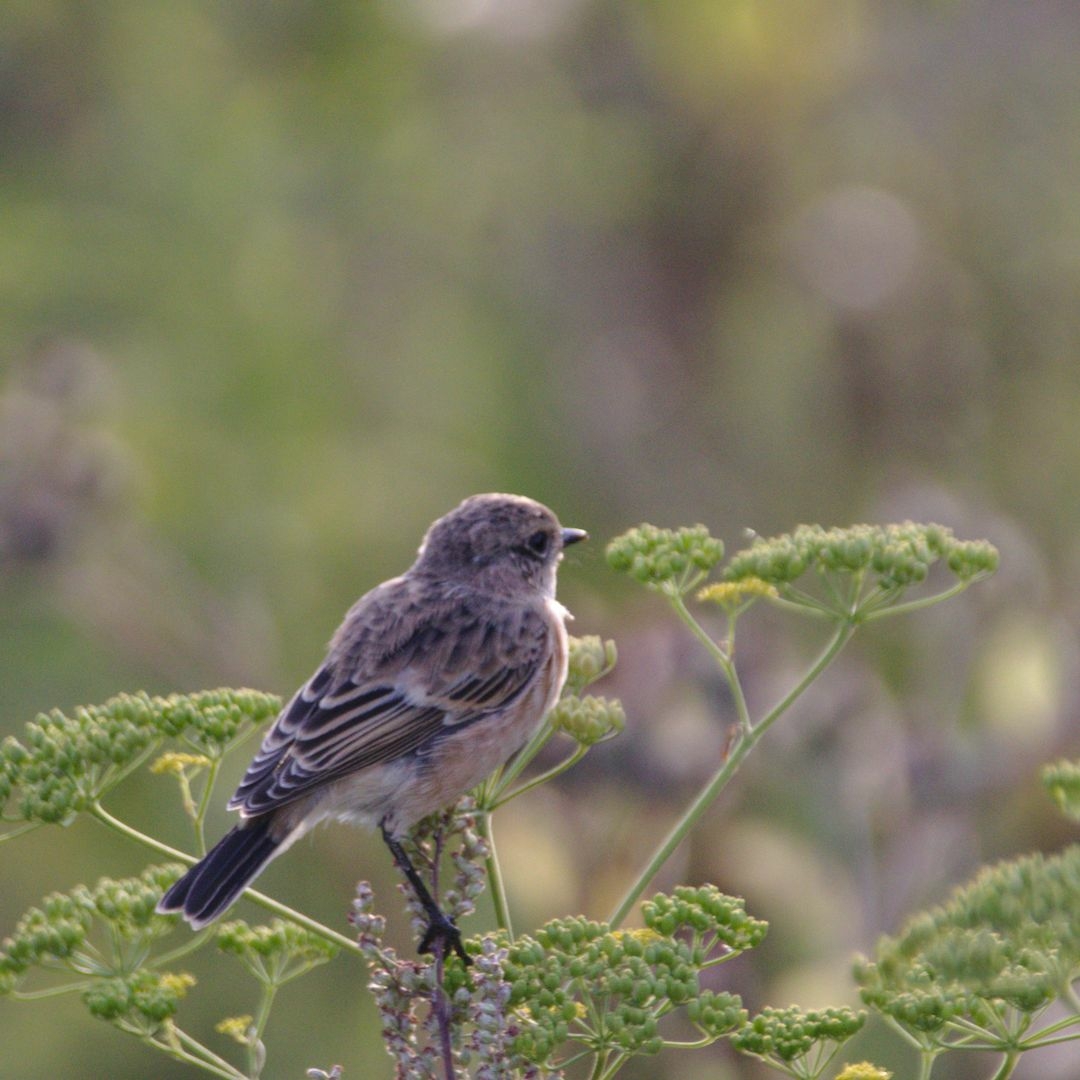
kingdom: Animalia
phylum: Chordata
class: Aves
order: Passeriformes
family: Muscicapidae
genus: Saxicola
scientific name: Saxicola maurus
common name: Siberian stonechat
